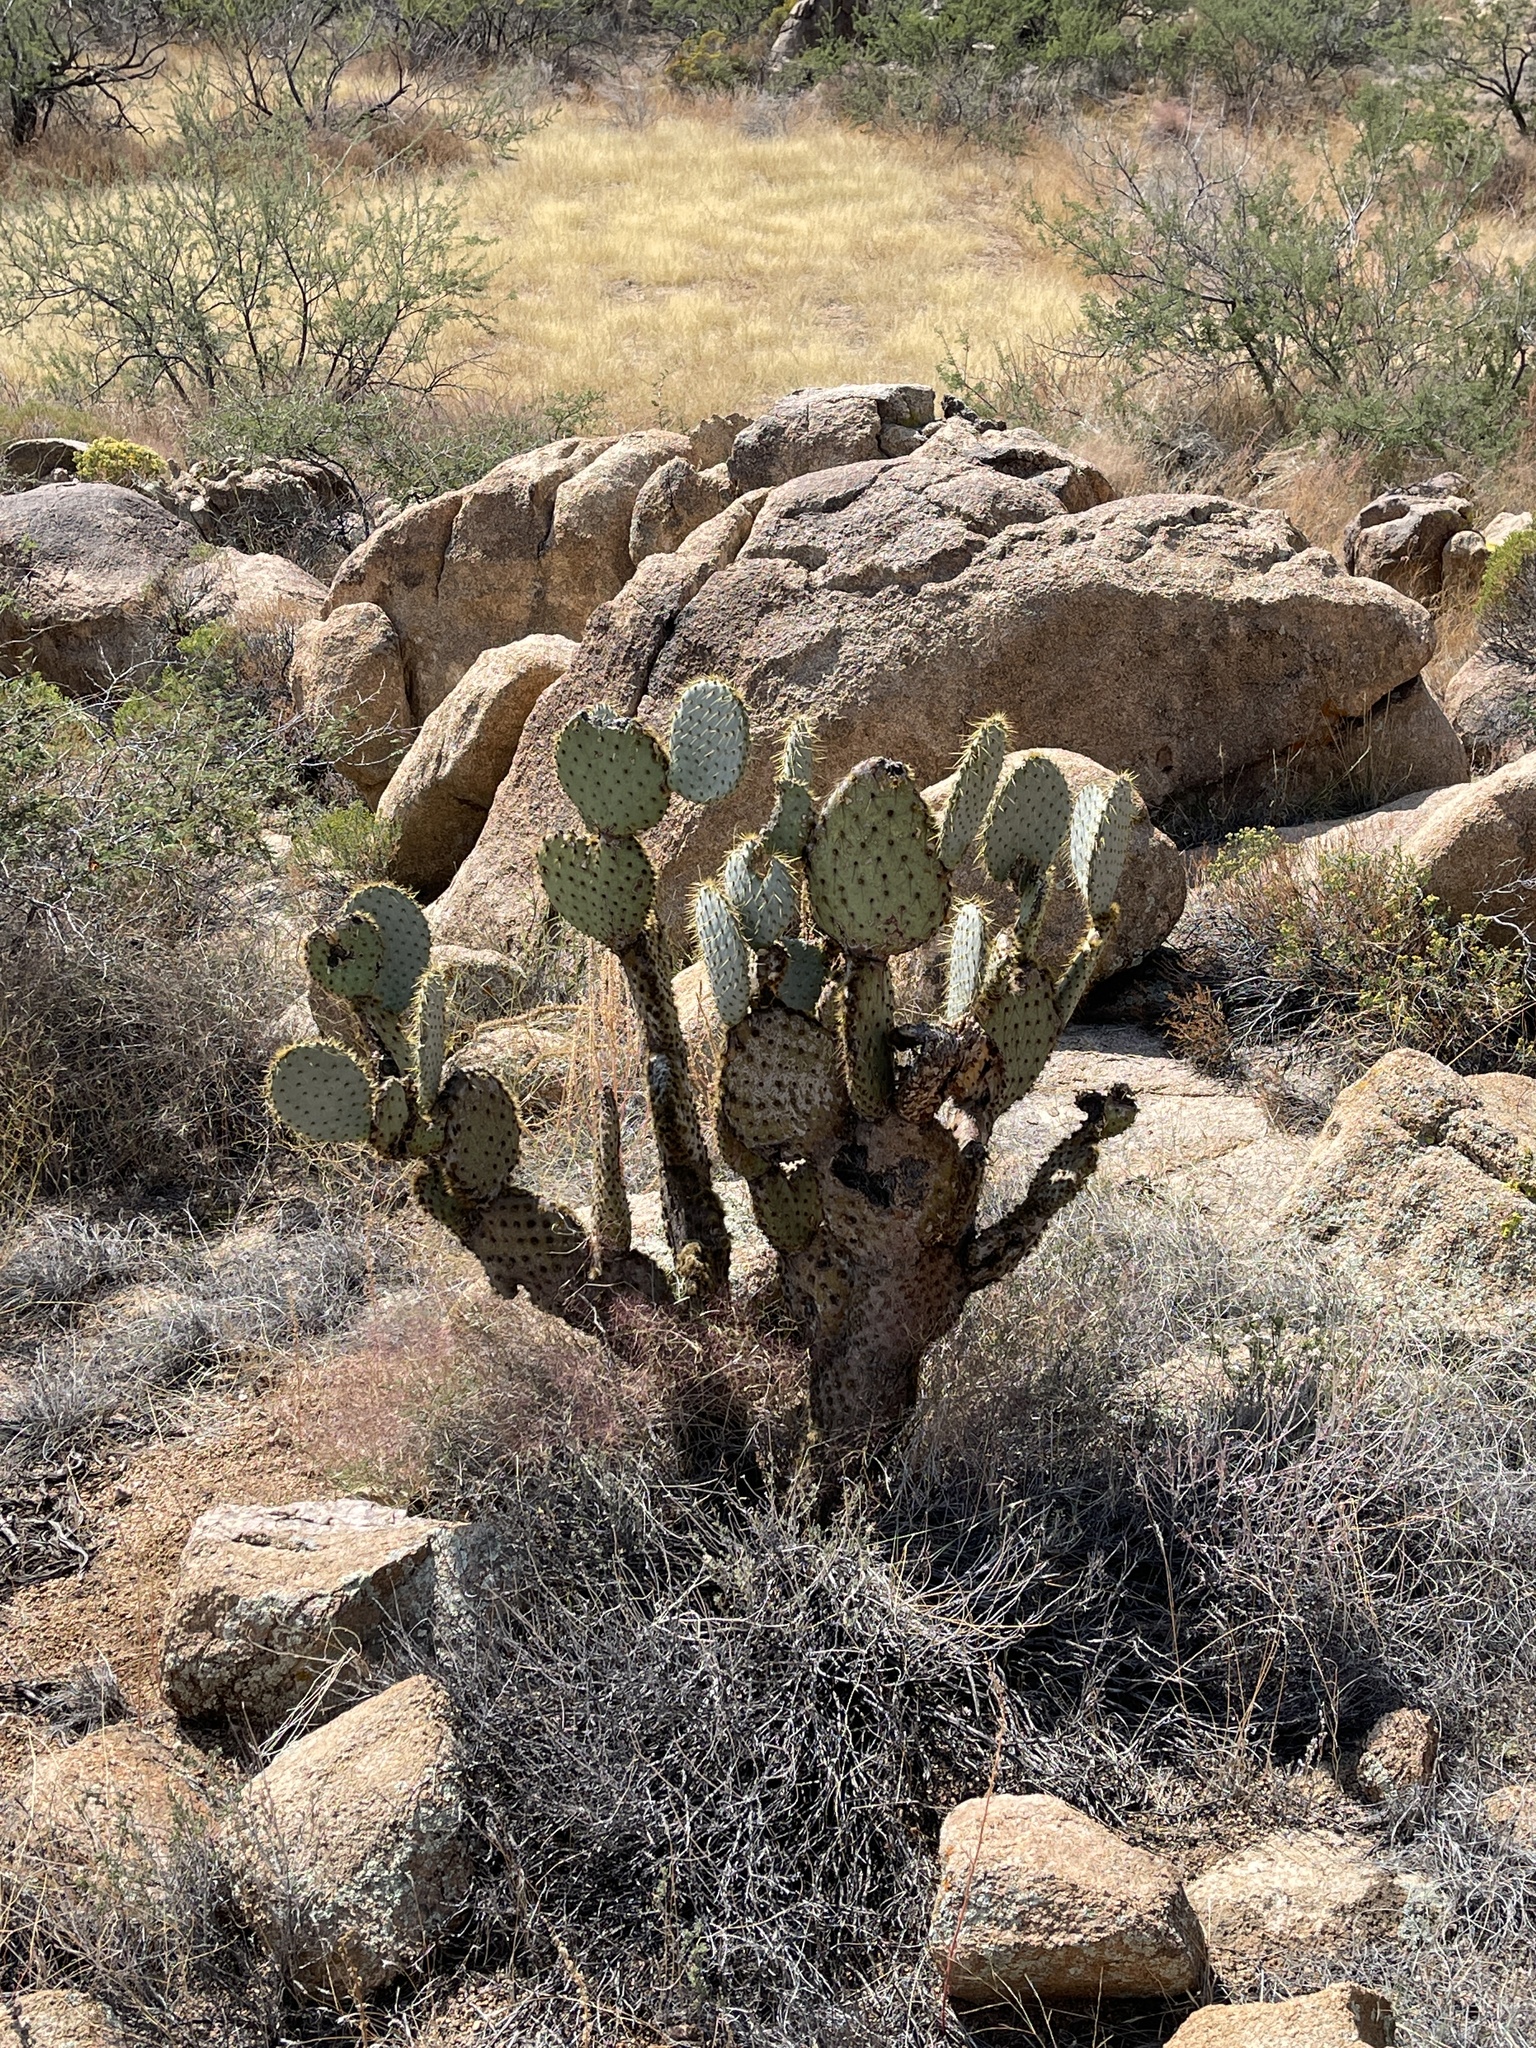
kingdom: Plantae
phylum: Tracheophyta
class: Magnoliopsida
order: Caryophyllales
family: Cactaceae
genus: Opuntia
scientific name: Opuntia chlorotica
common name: Dollar-joint prickly-pear
